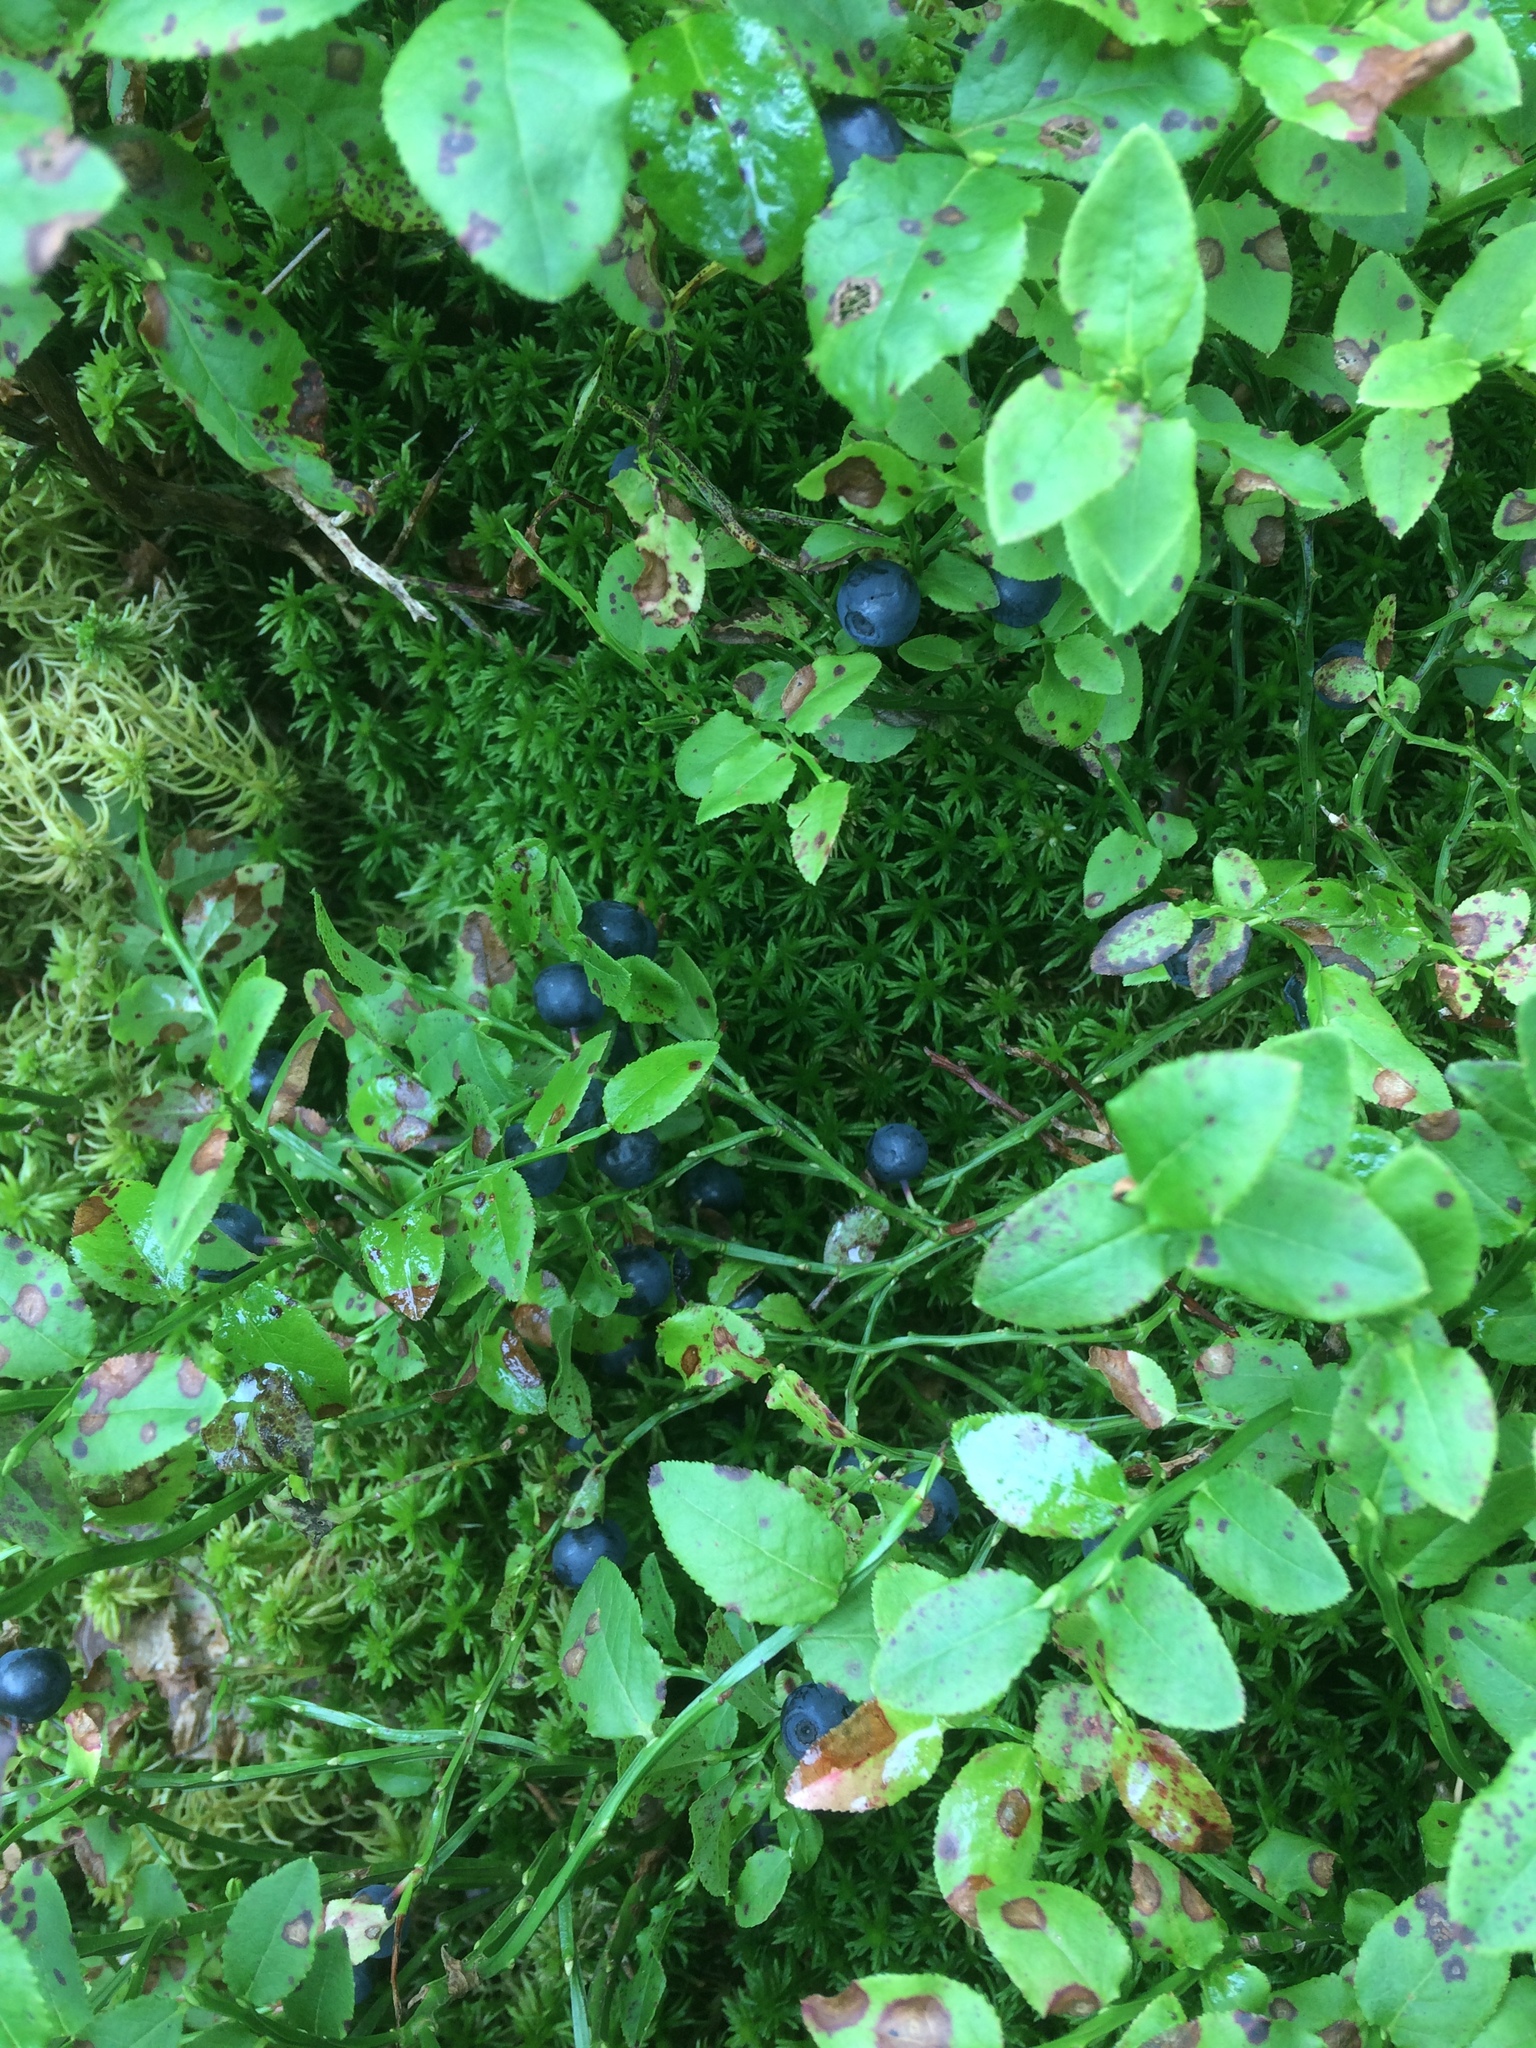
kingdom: Plantae
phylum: Tracheophyta
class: Magnoliopsida
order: Ericales
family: Ericaceae
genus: Vaccinium
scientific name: Vaccinium myrtillus
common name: Bilberry
